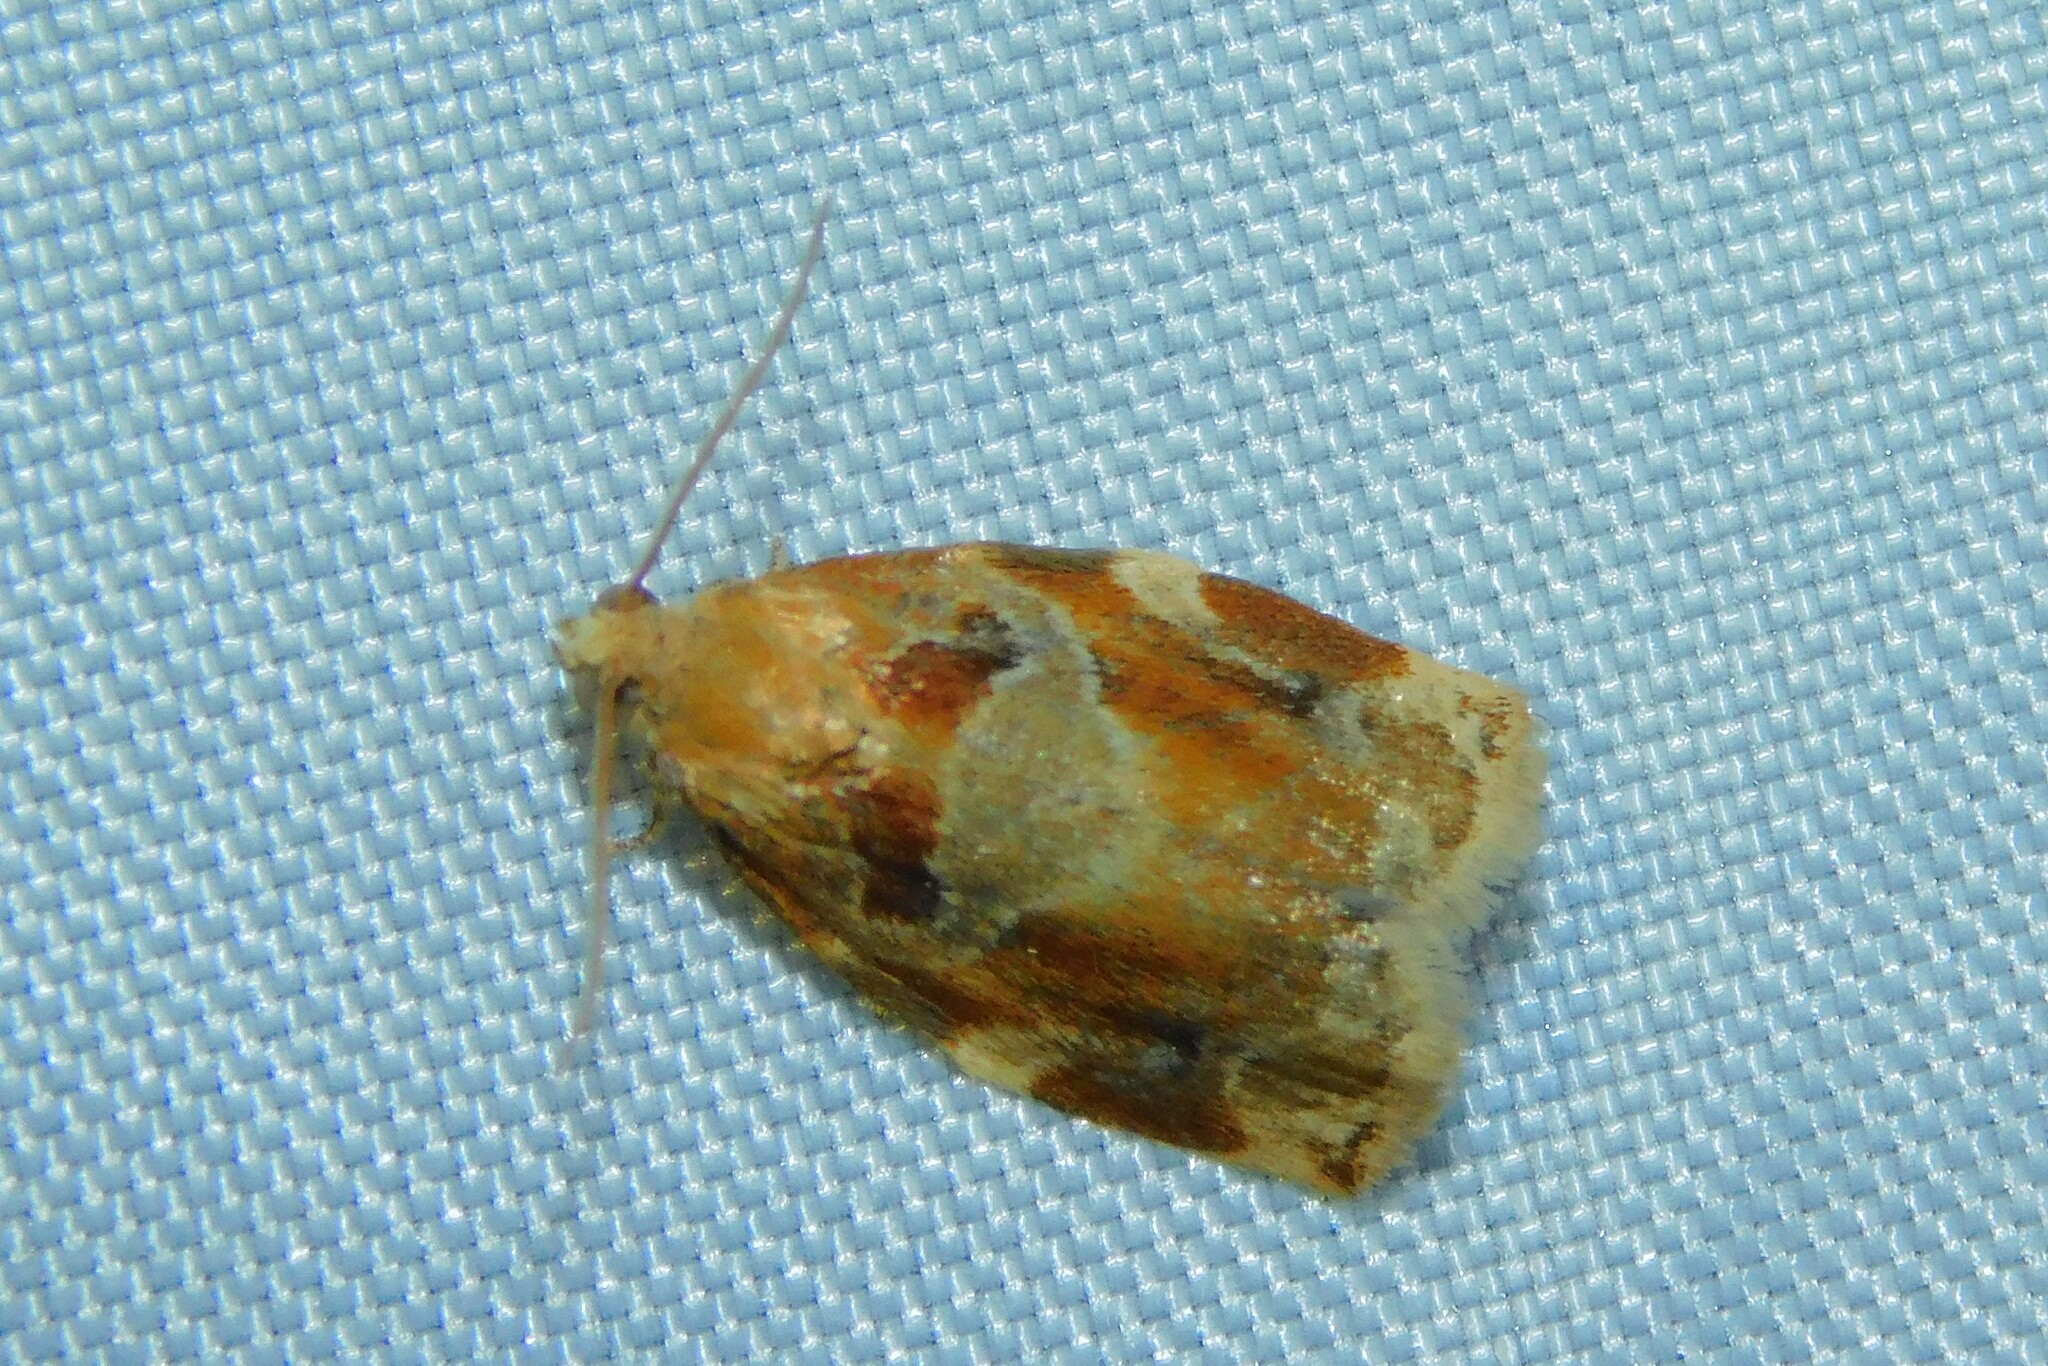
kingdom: Animalia
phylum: Arthropoda
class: Insecta
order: Lepidoptera
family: Tortricidae
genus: Archips
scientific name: Archips xylosteana
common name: Variegated golden tortrix
